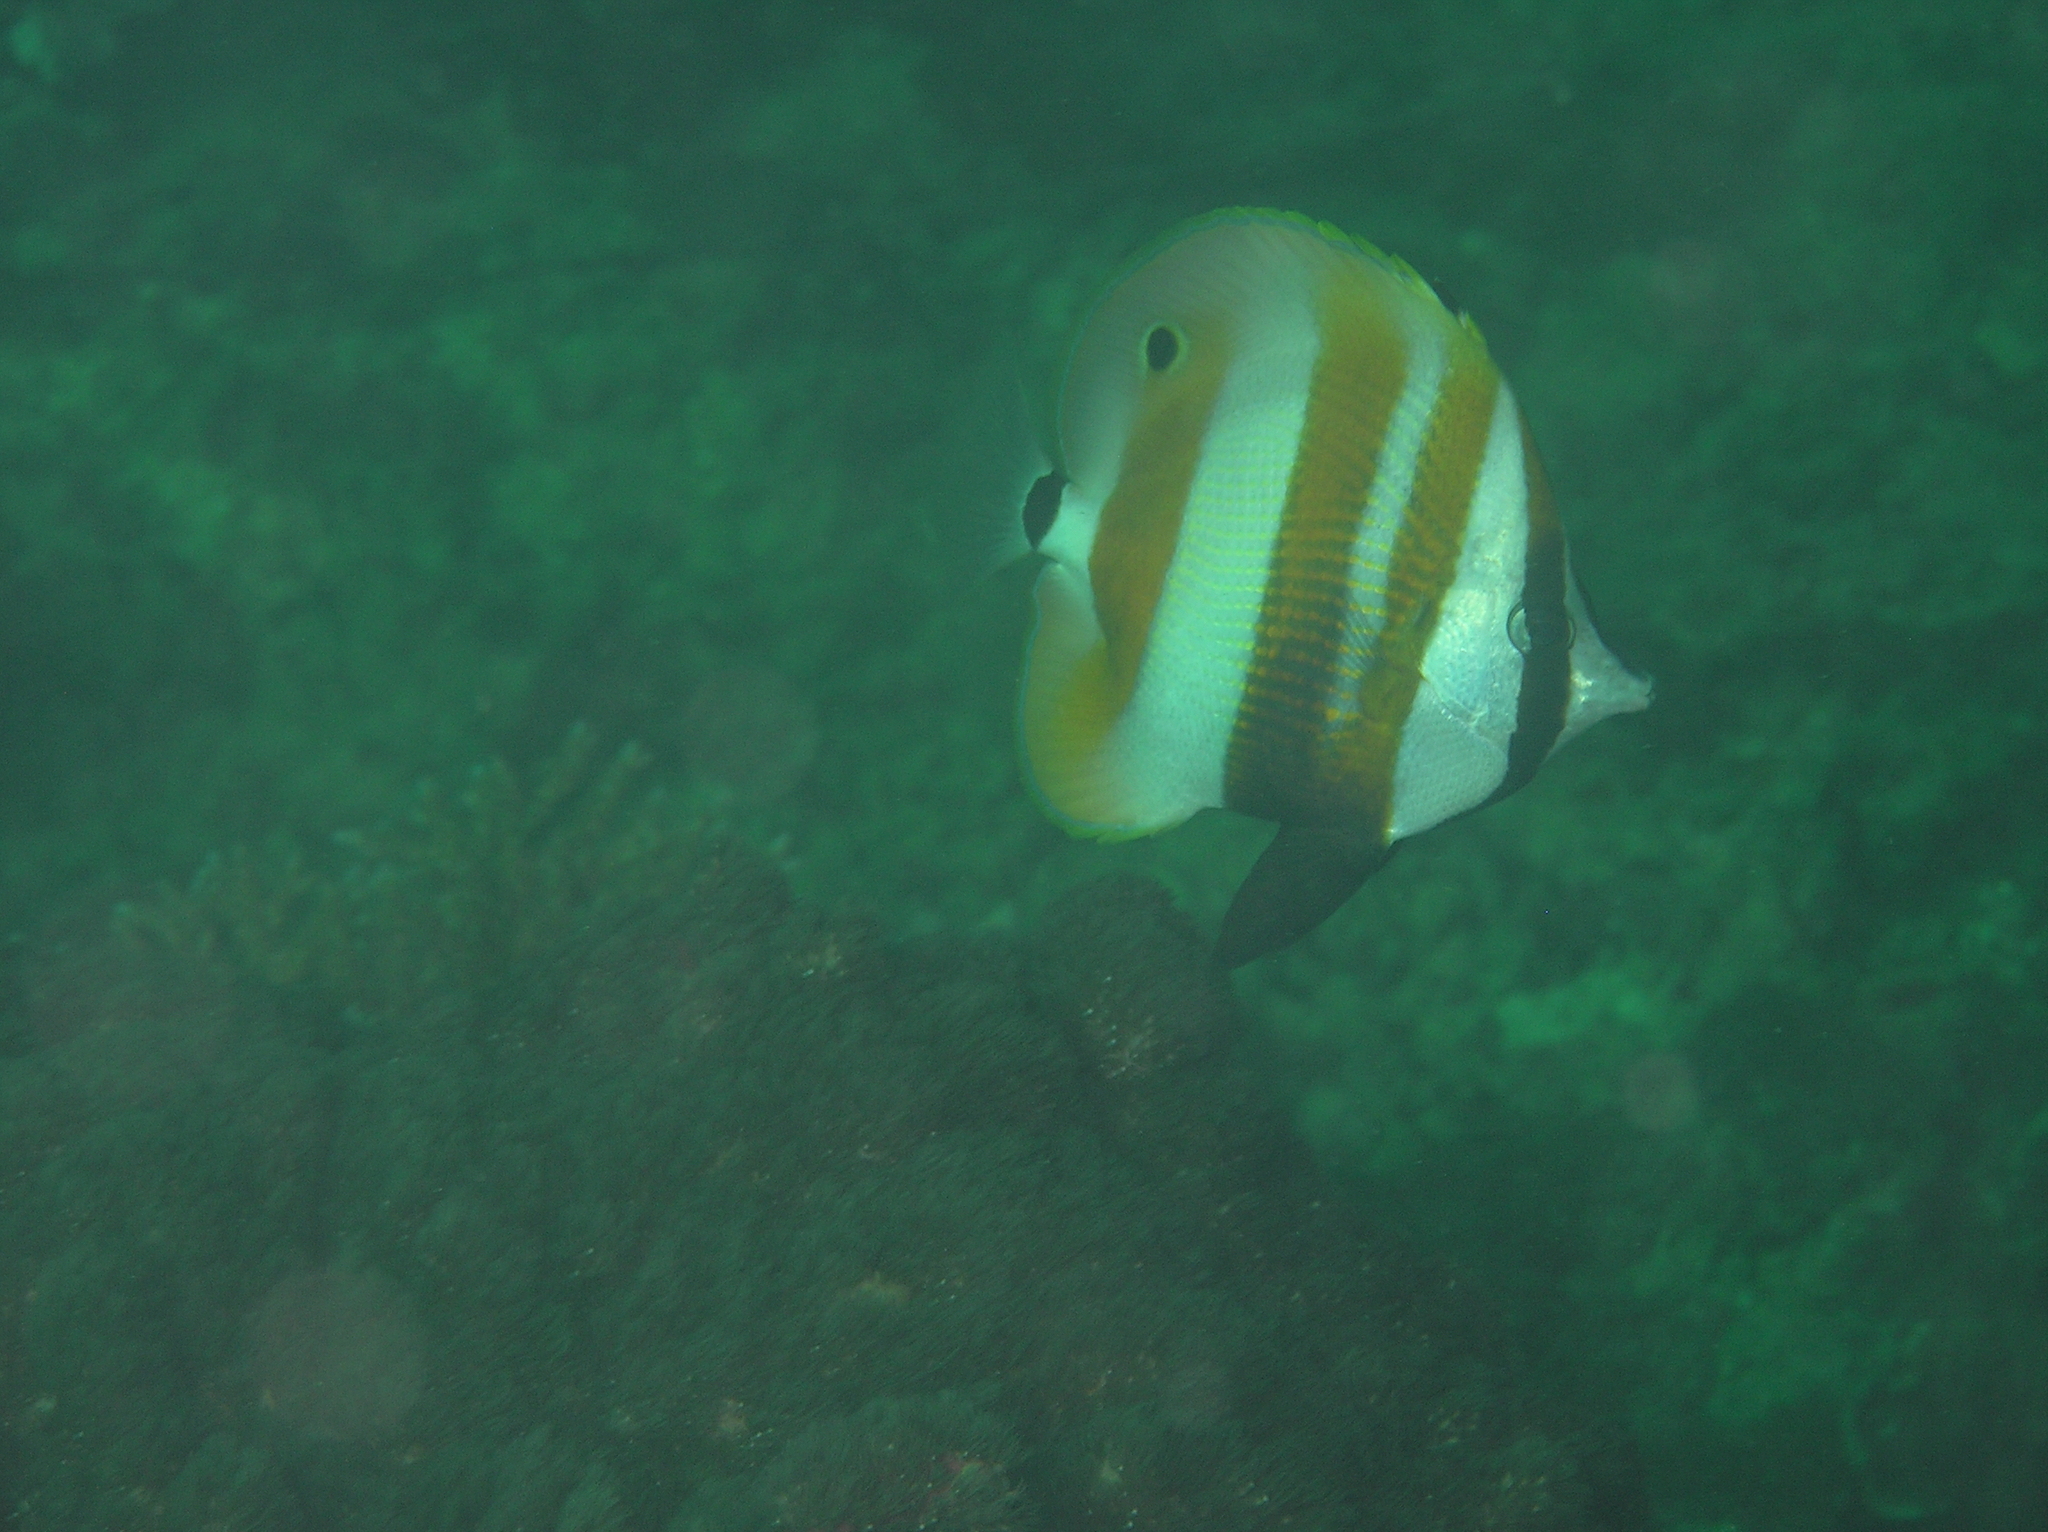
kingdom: Animalia
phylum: Chordata
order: Perciformes
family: Chaetodontidae
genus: Coradion
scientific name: Coradion chrysozonus
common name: Orange-banded coralfish
